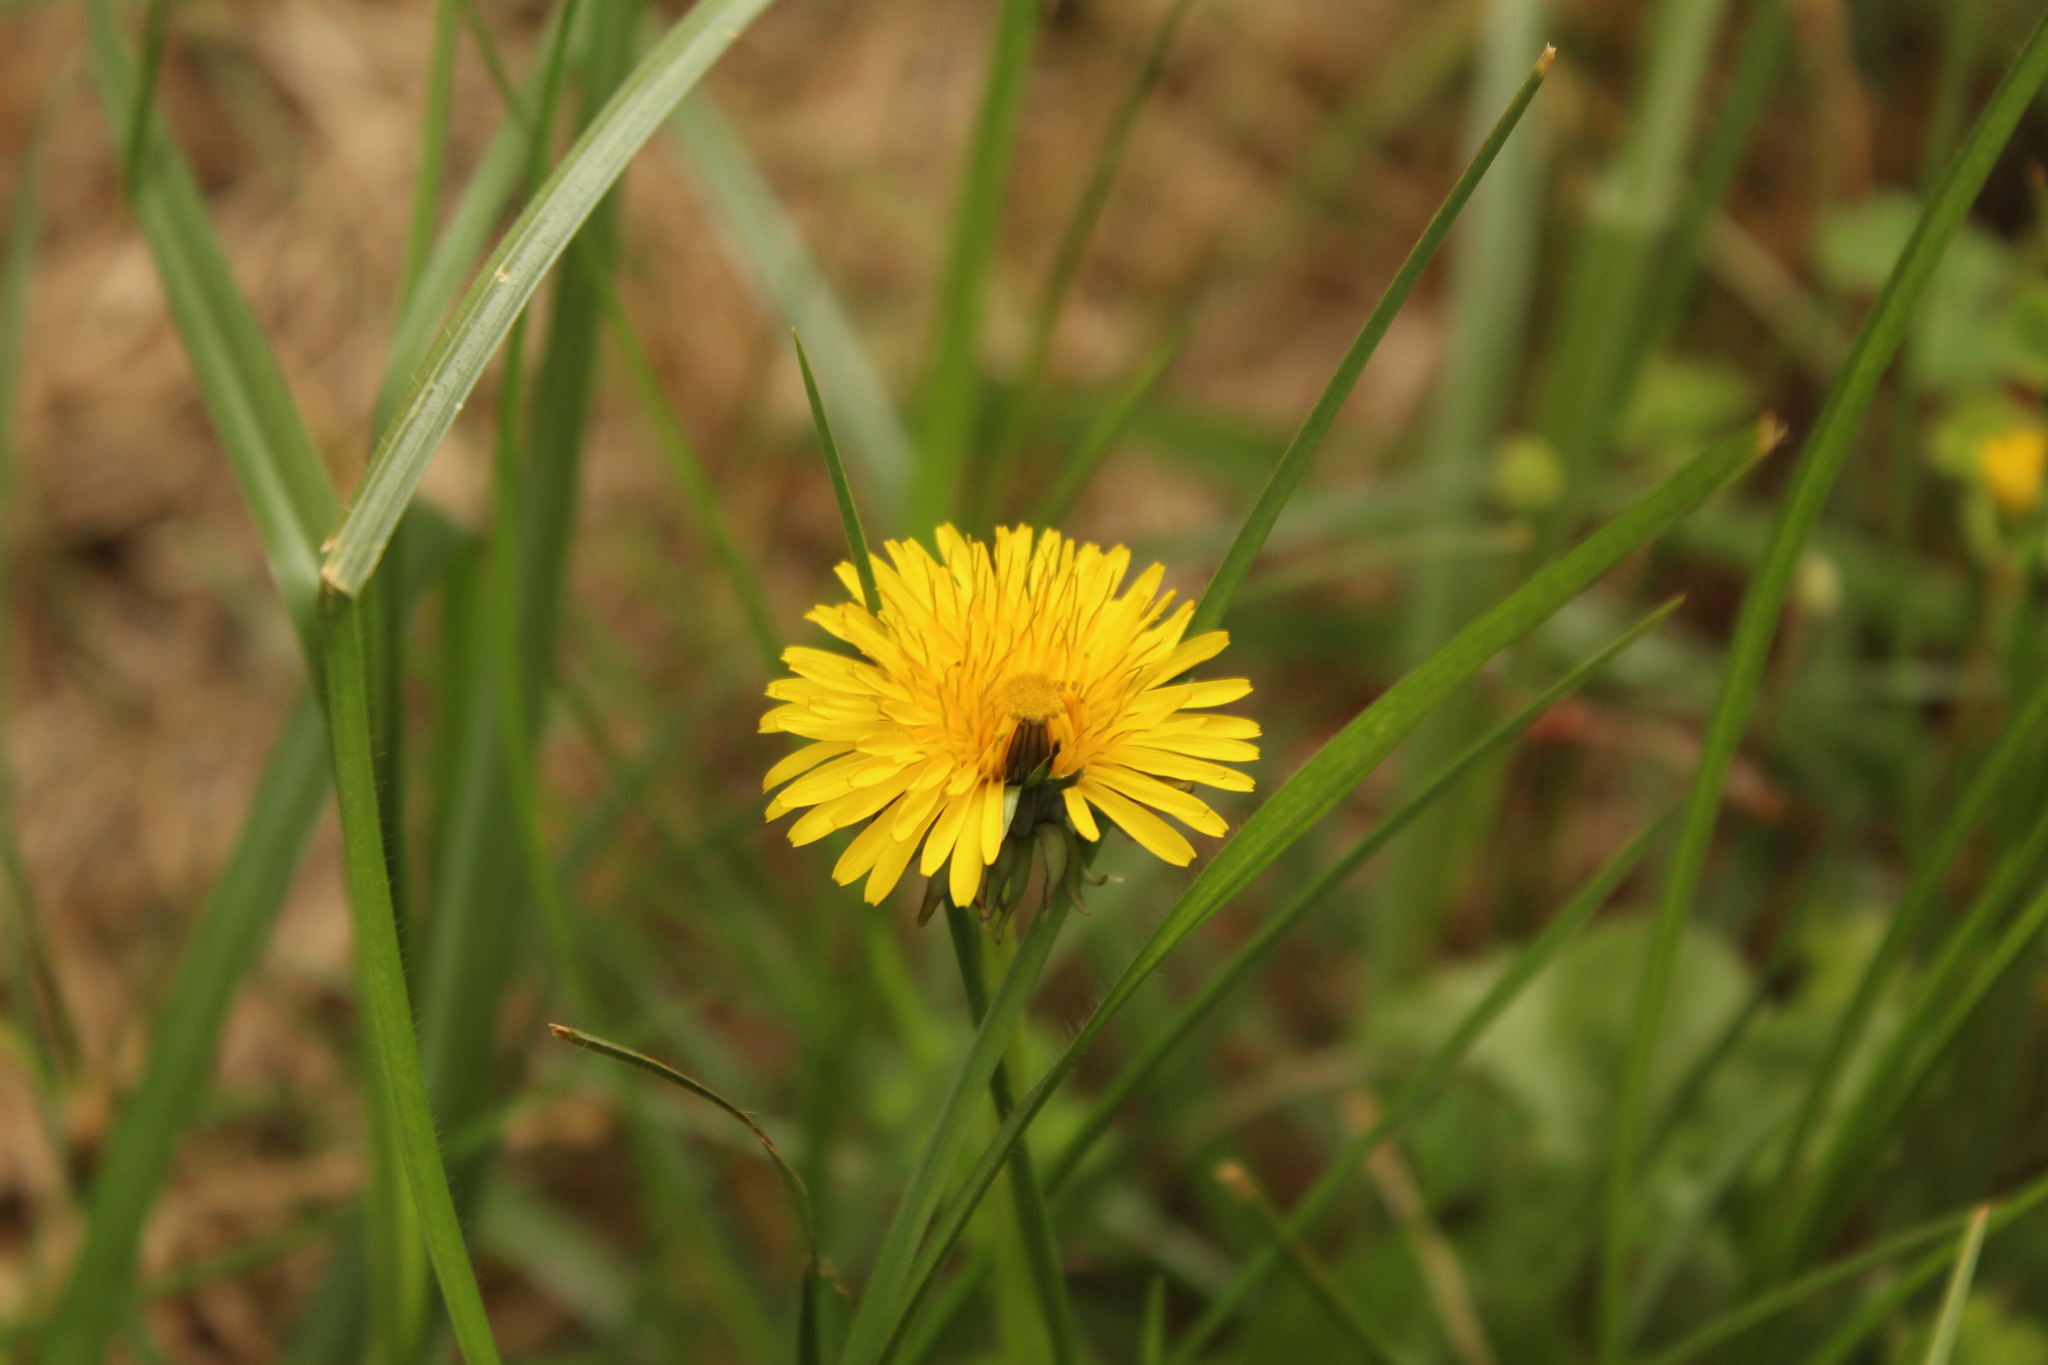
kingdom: Plantae
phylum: Tracheophyta
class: Magnoliopsida
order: Asterales
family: Asteraceae
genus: Taraxacum
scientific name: Taraxacum officinale
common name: Common dandelion
